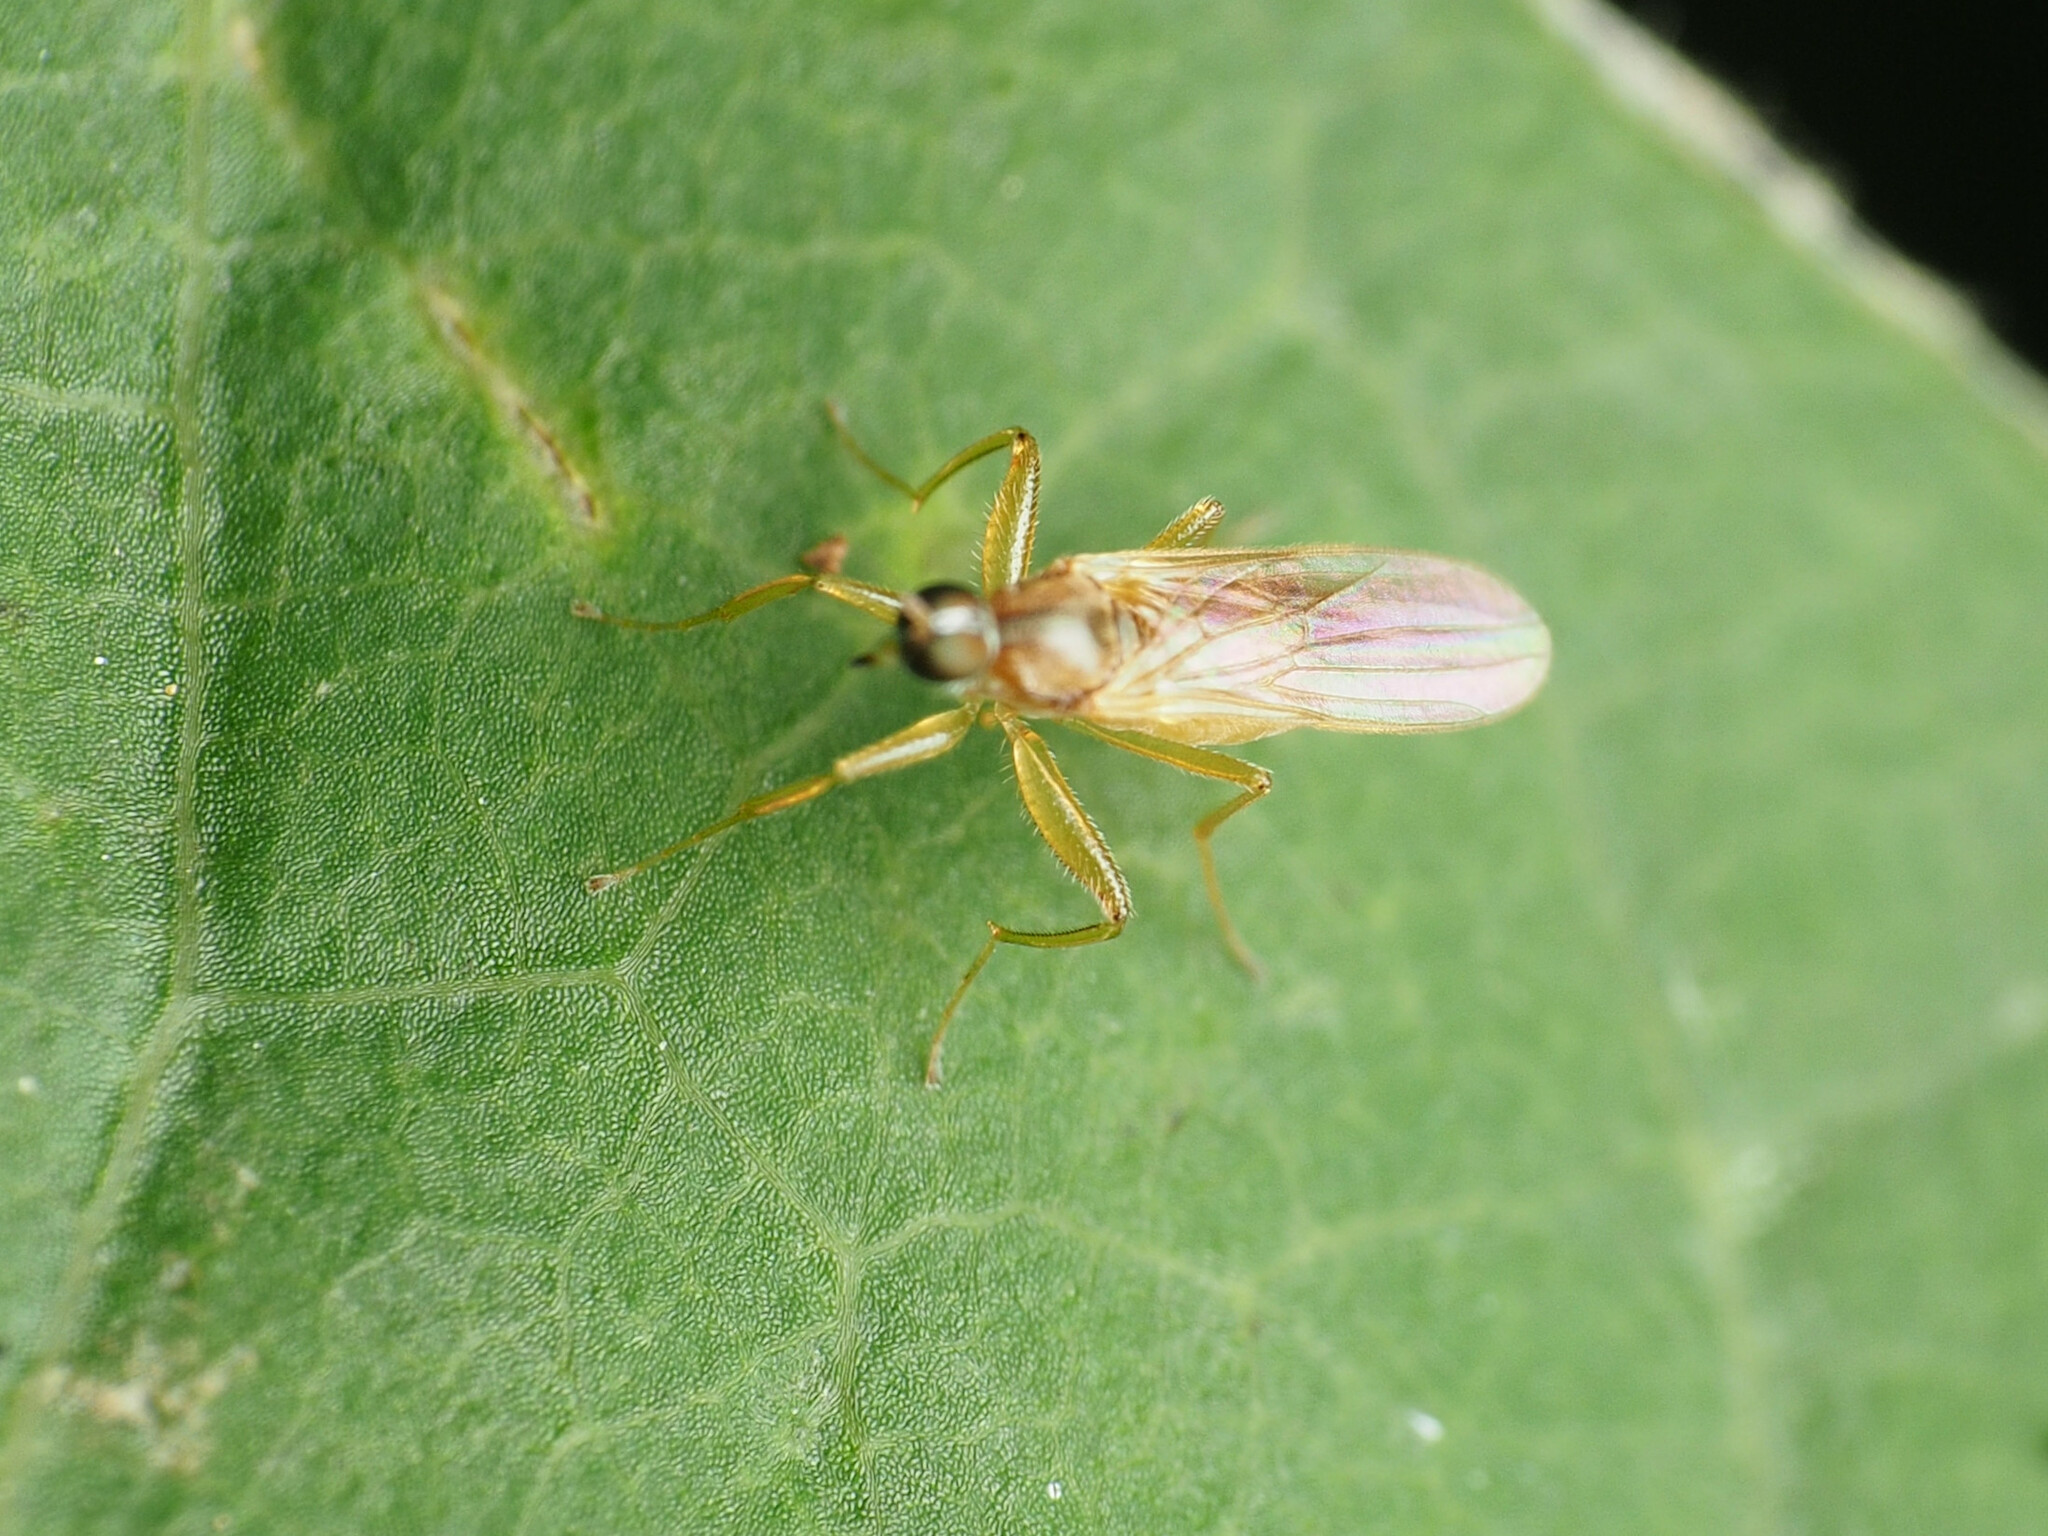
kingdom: Animalia
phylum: Arthropoda
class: Insecta
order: Diptera
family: Hybotidae
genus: Platypalpus
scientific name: Platypalpus rubefactus
